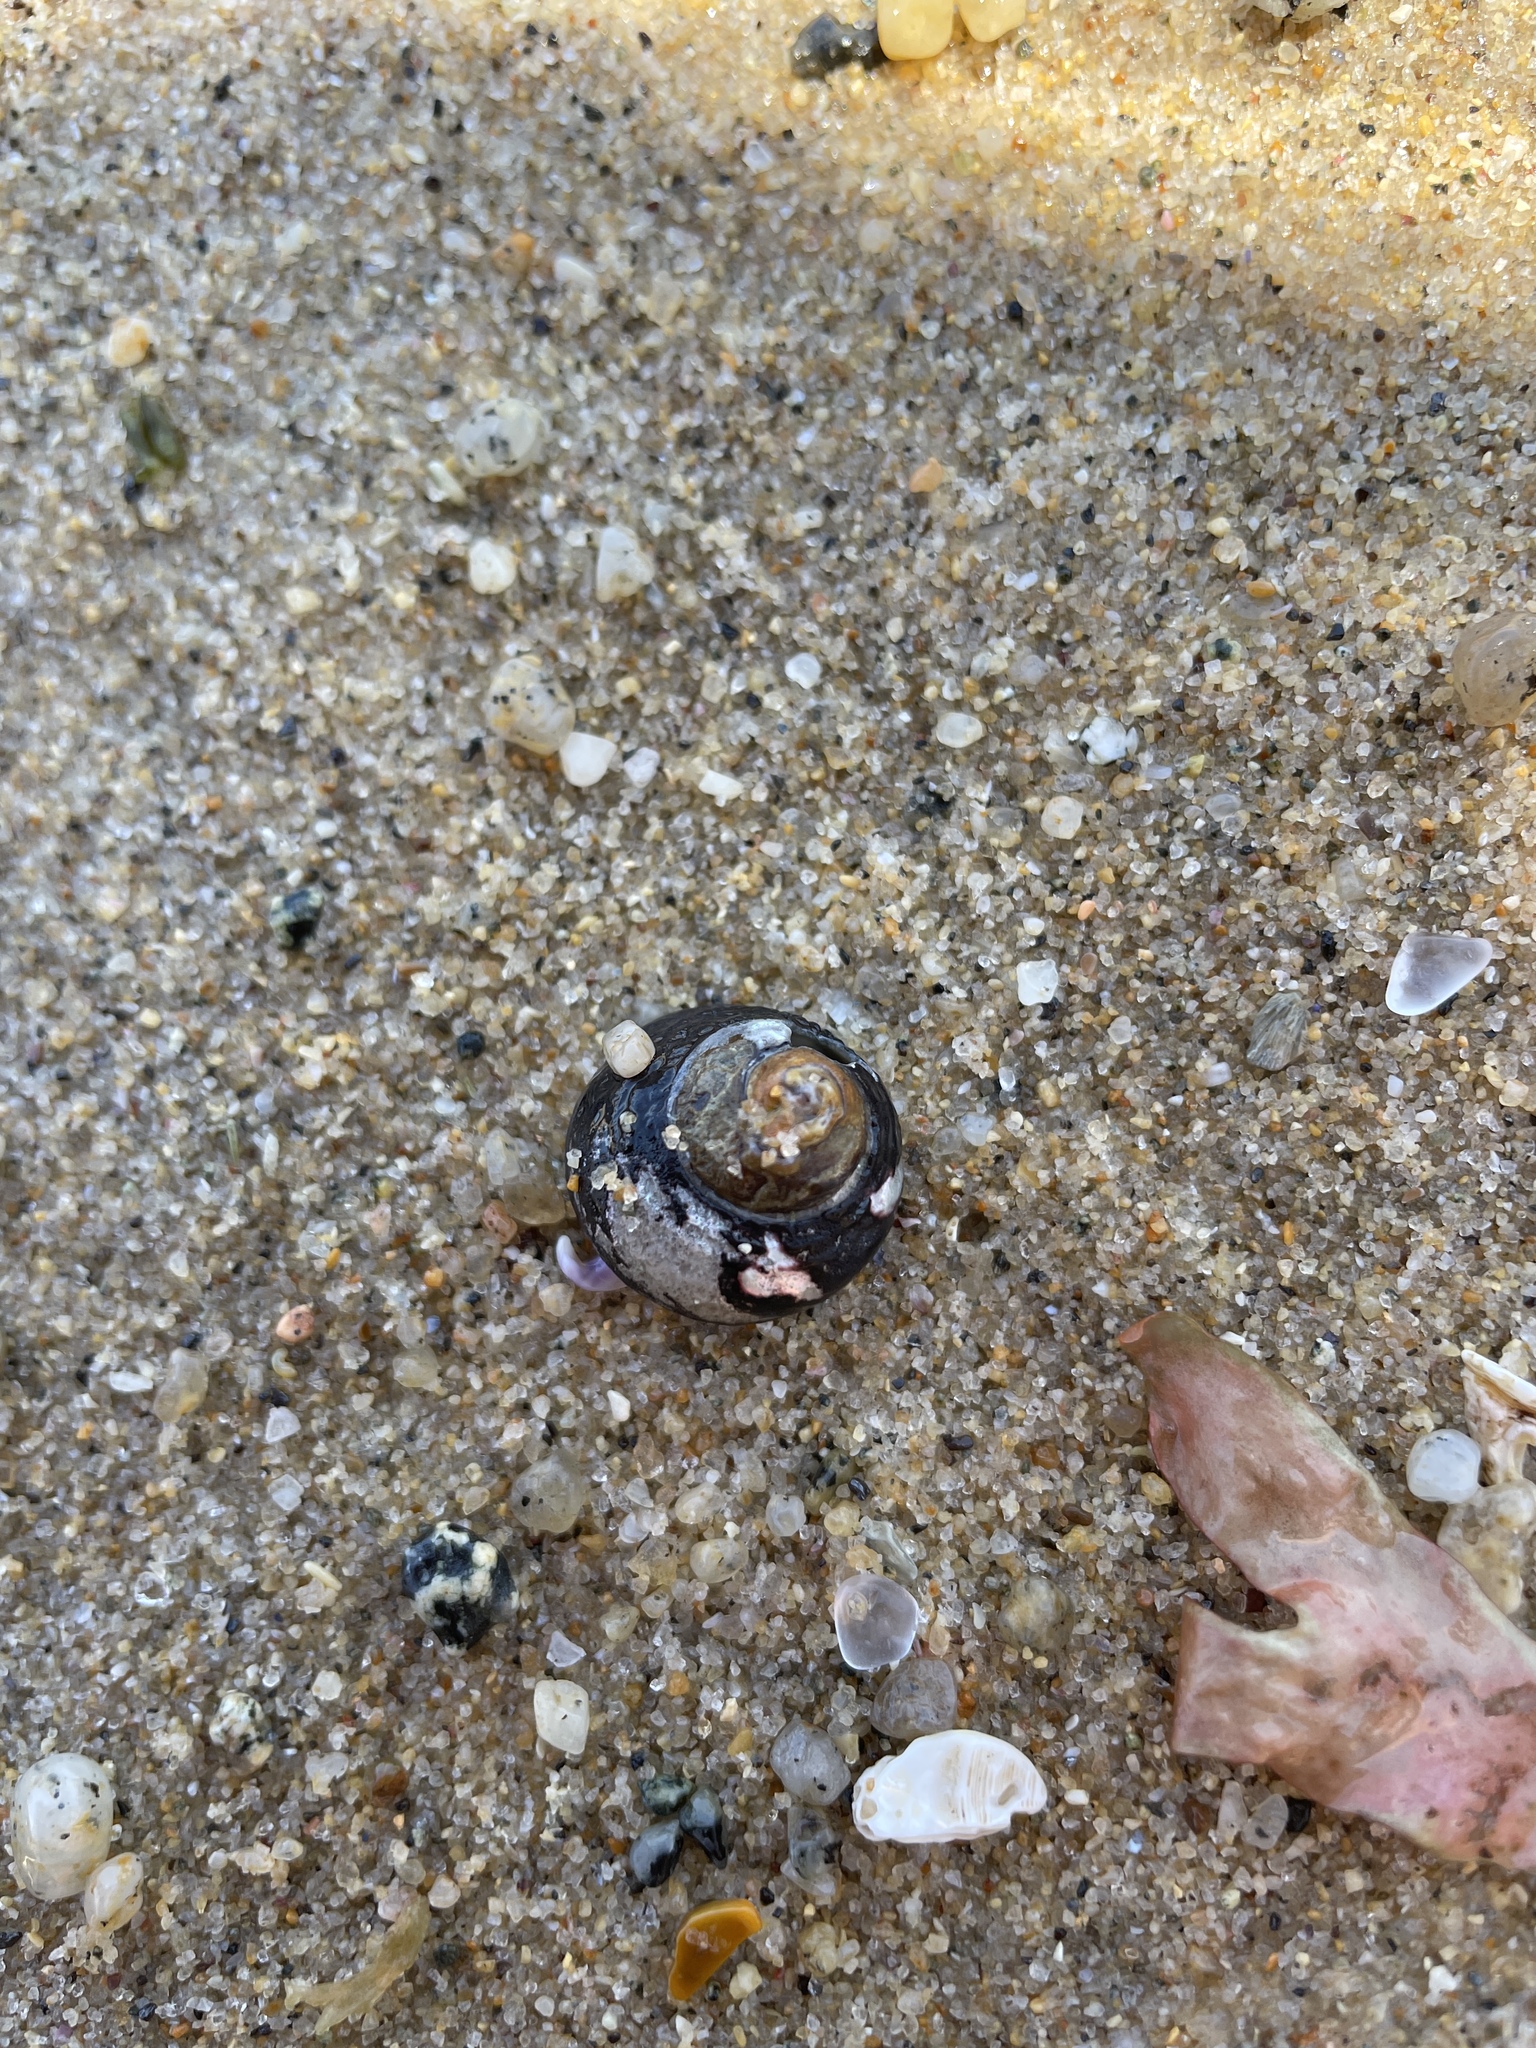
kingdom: Animalia
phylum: Mollusca
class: Gastropoda
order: Trochida
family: Tegulidae
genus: Tegula
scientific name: Tegula funebralis
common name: Black tegula
